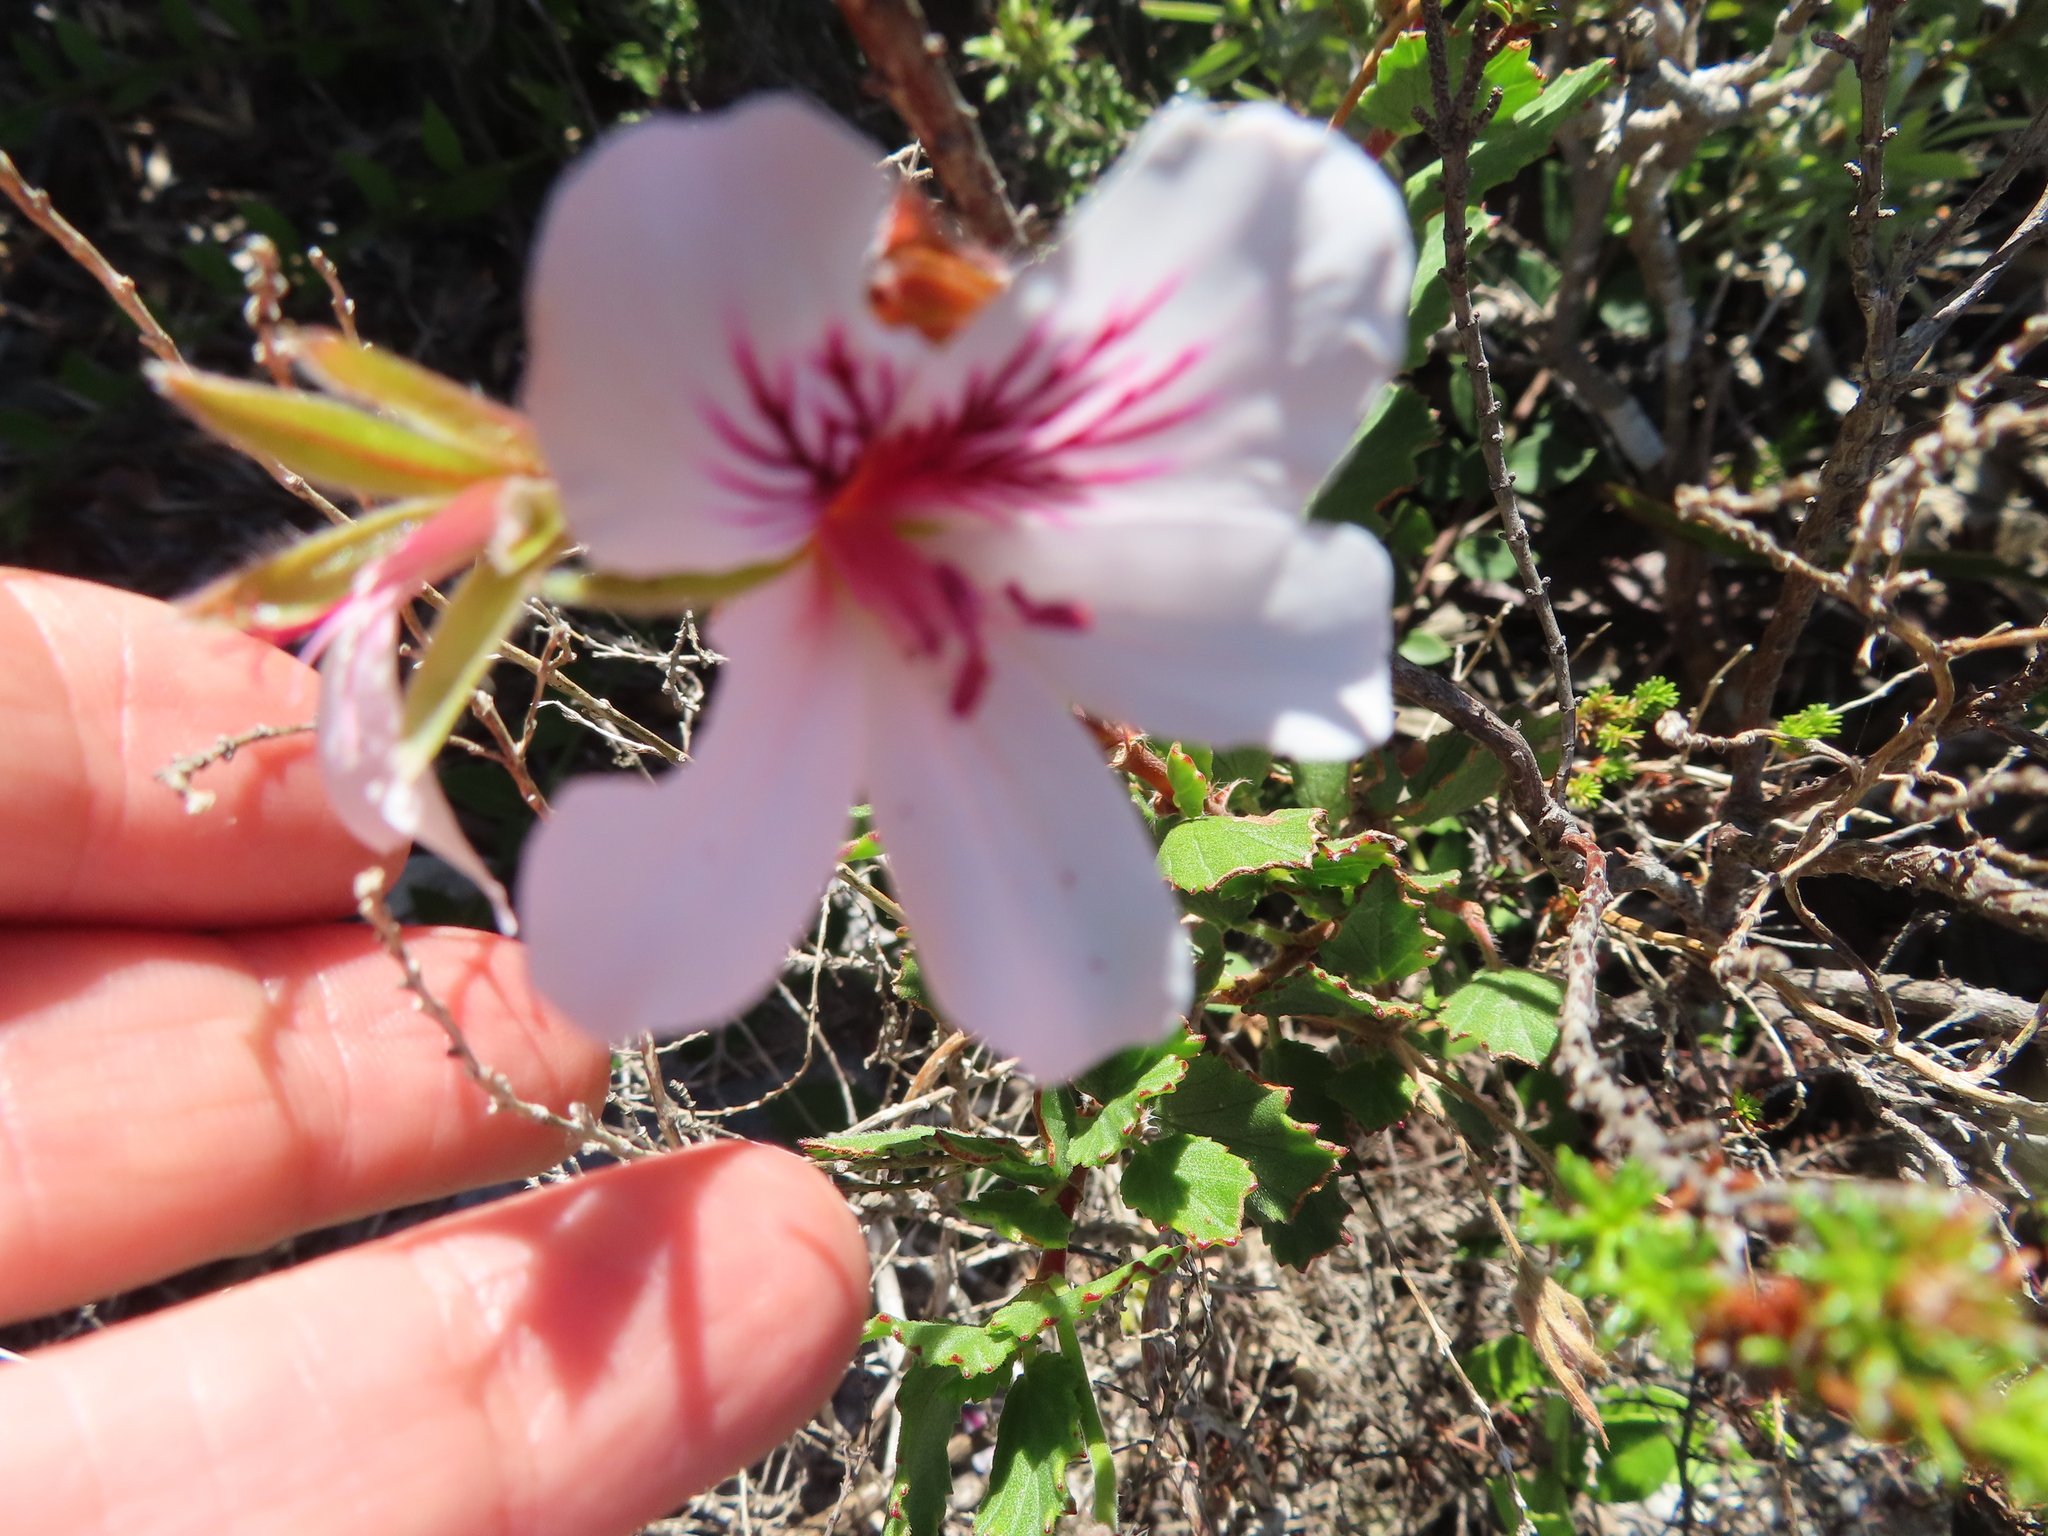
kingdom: Plantae
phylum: Tracheophyta
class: Magnoliopsida
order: Geraniales
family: Geraniaceae
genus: Pelargonium
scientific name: Pelargonium betulinum
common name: Birch-leaf pelargonium
